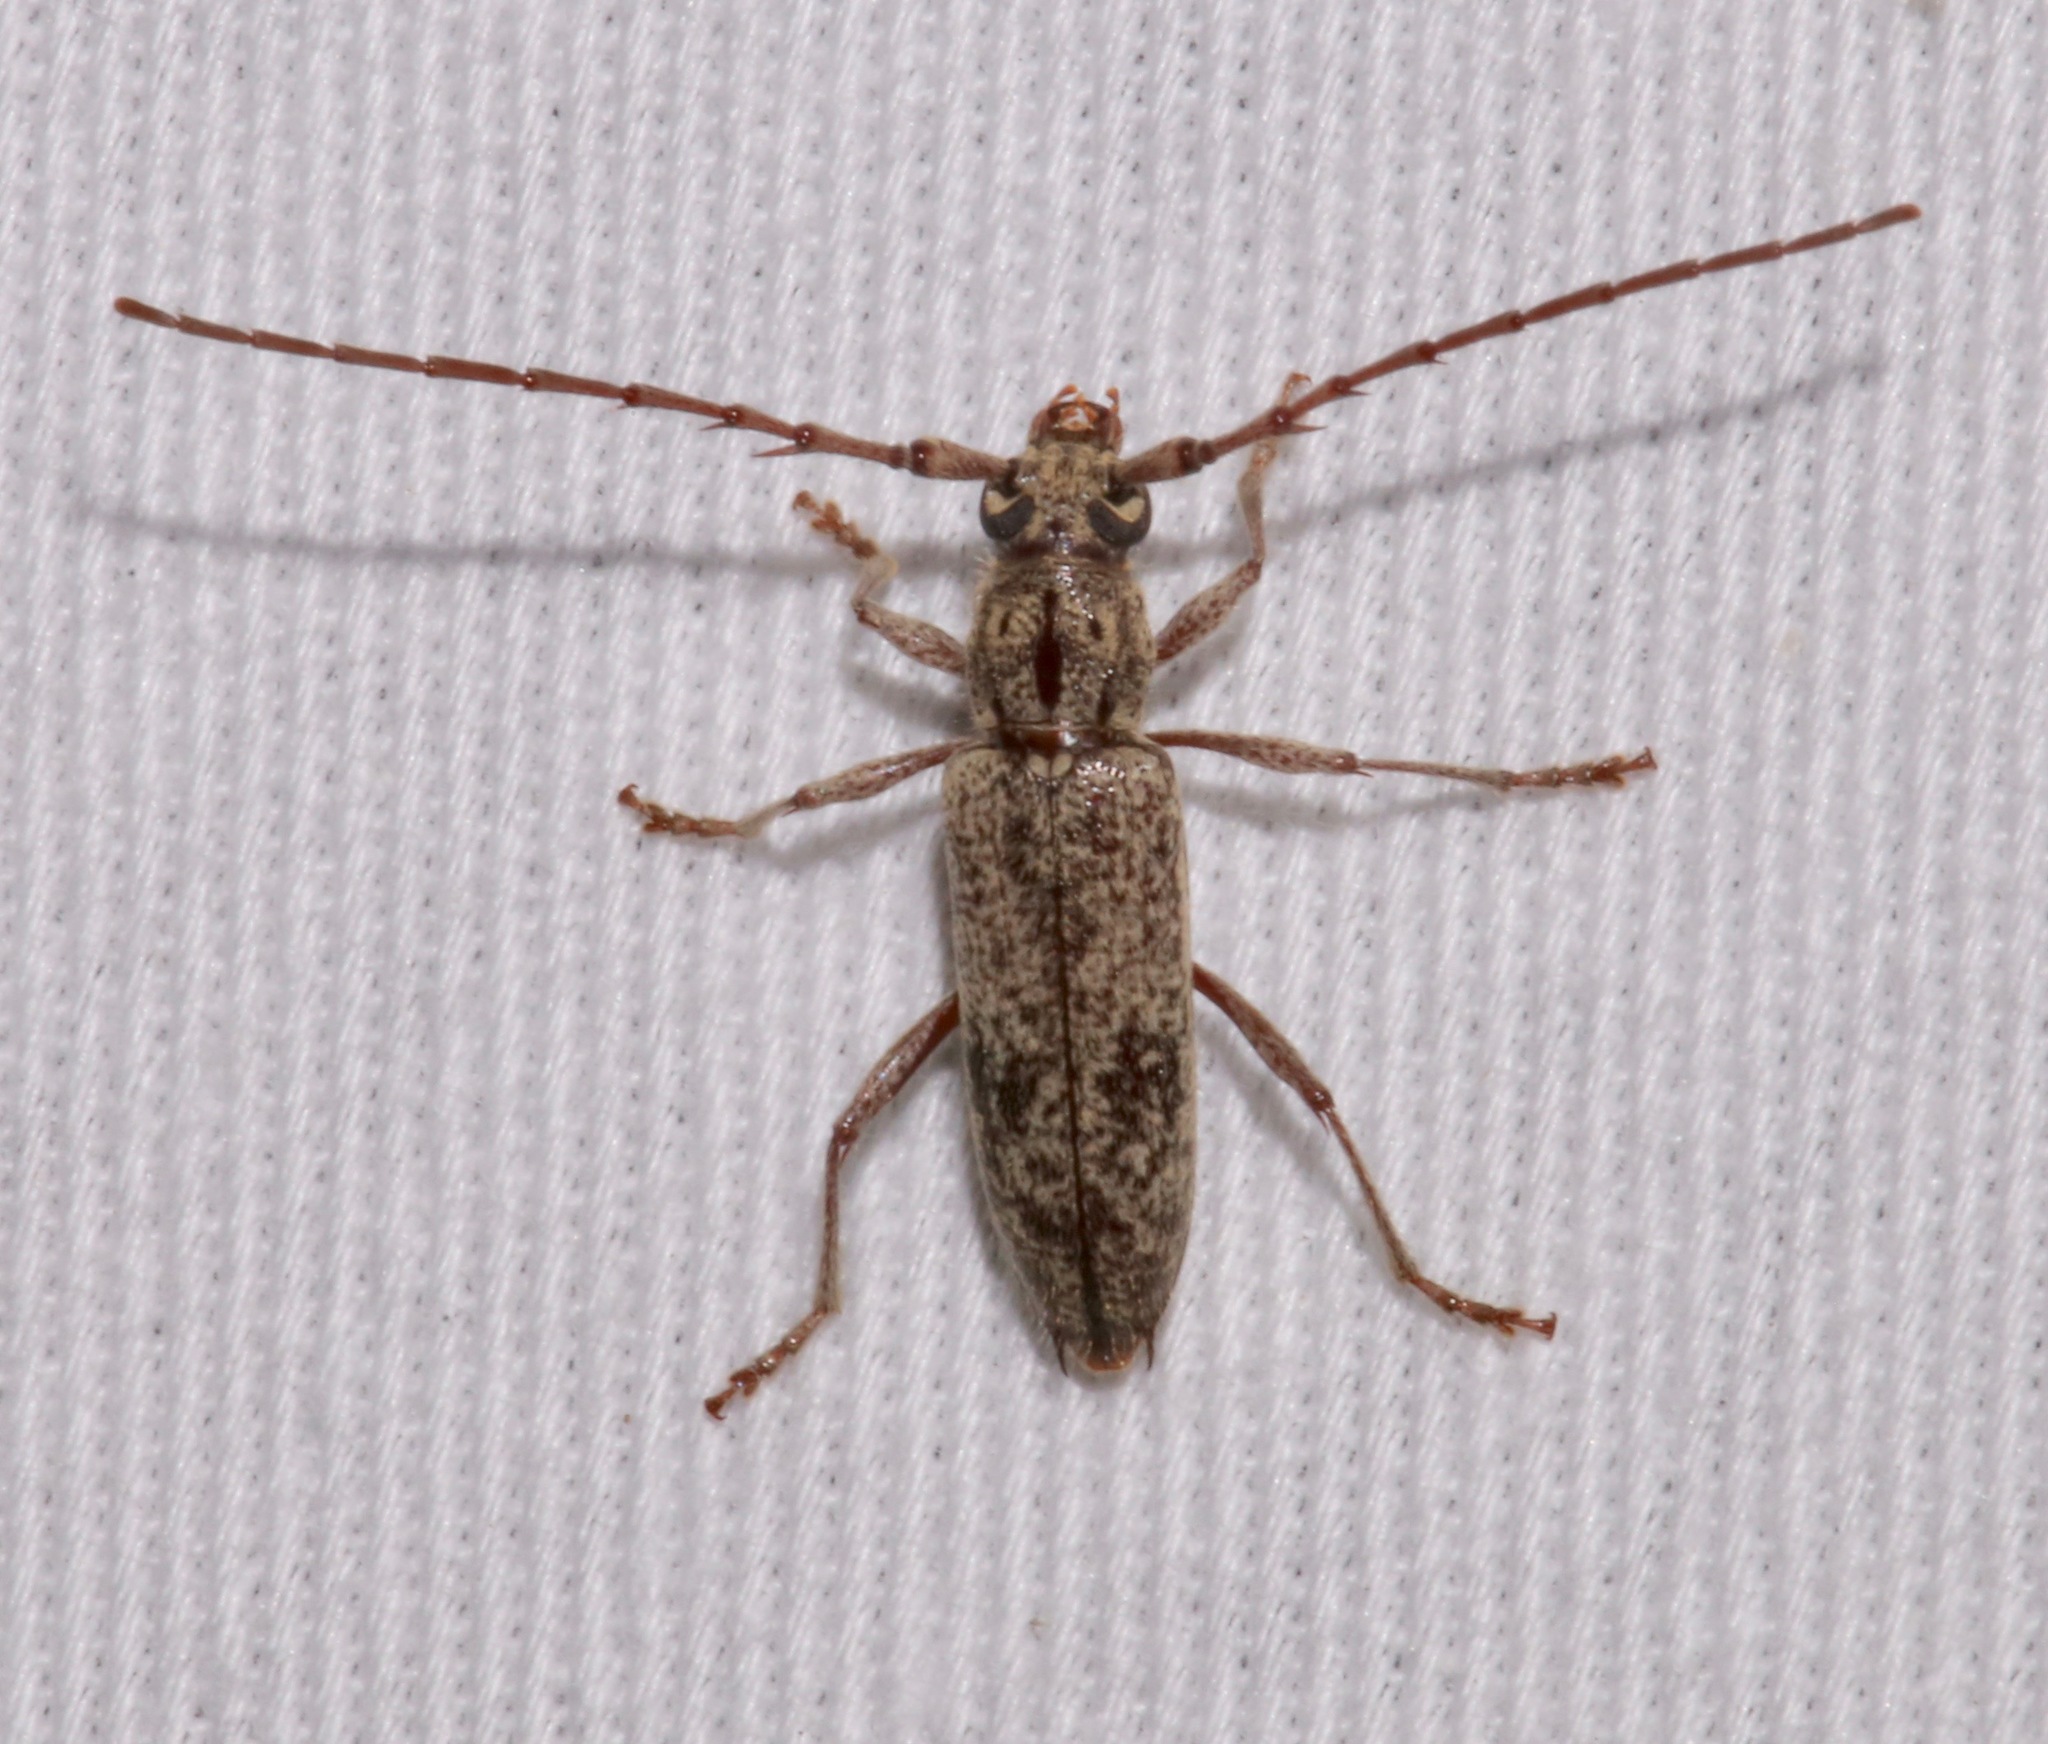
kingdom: Animalia
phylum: Arthropoda
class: Insecta
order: Coleoptera
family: Cerambycidae
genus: Elaphidion
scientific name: Elaphidion mucronatum
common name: Spined oak borer
